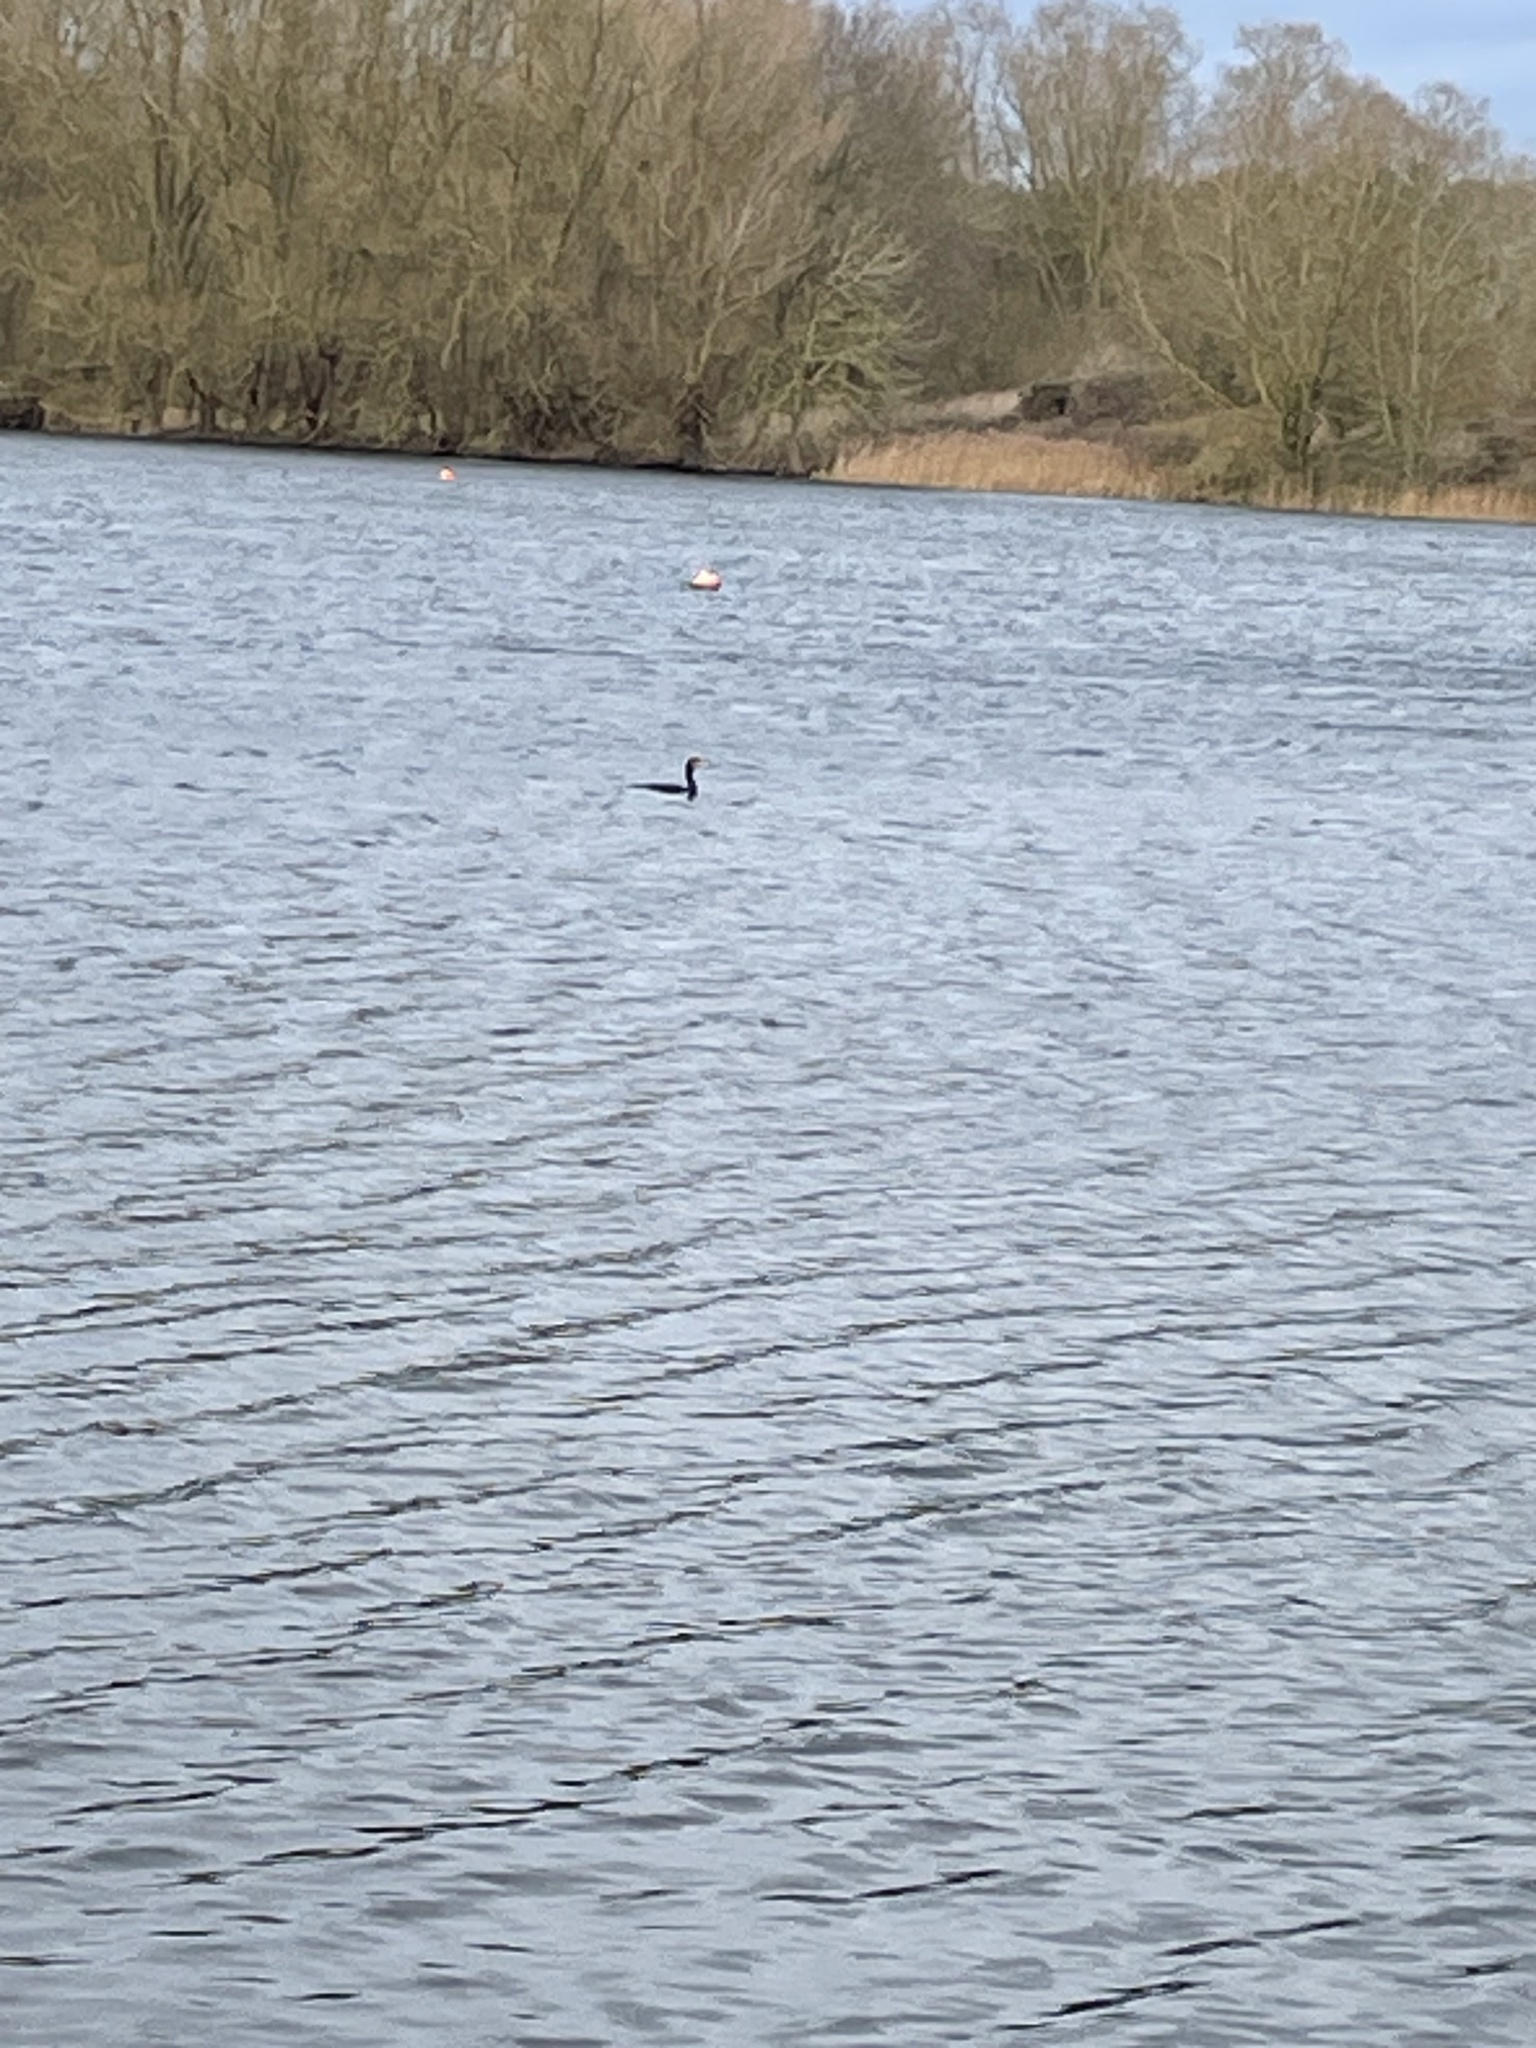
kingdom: Animalia
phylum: Chordata
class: Aves
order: Suliformes
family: Phalacrocoracidae
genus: Phalacrocorax
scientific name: Phalacrocorax carbo
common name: Great cormorant
